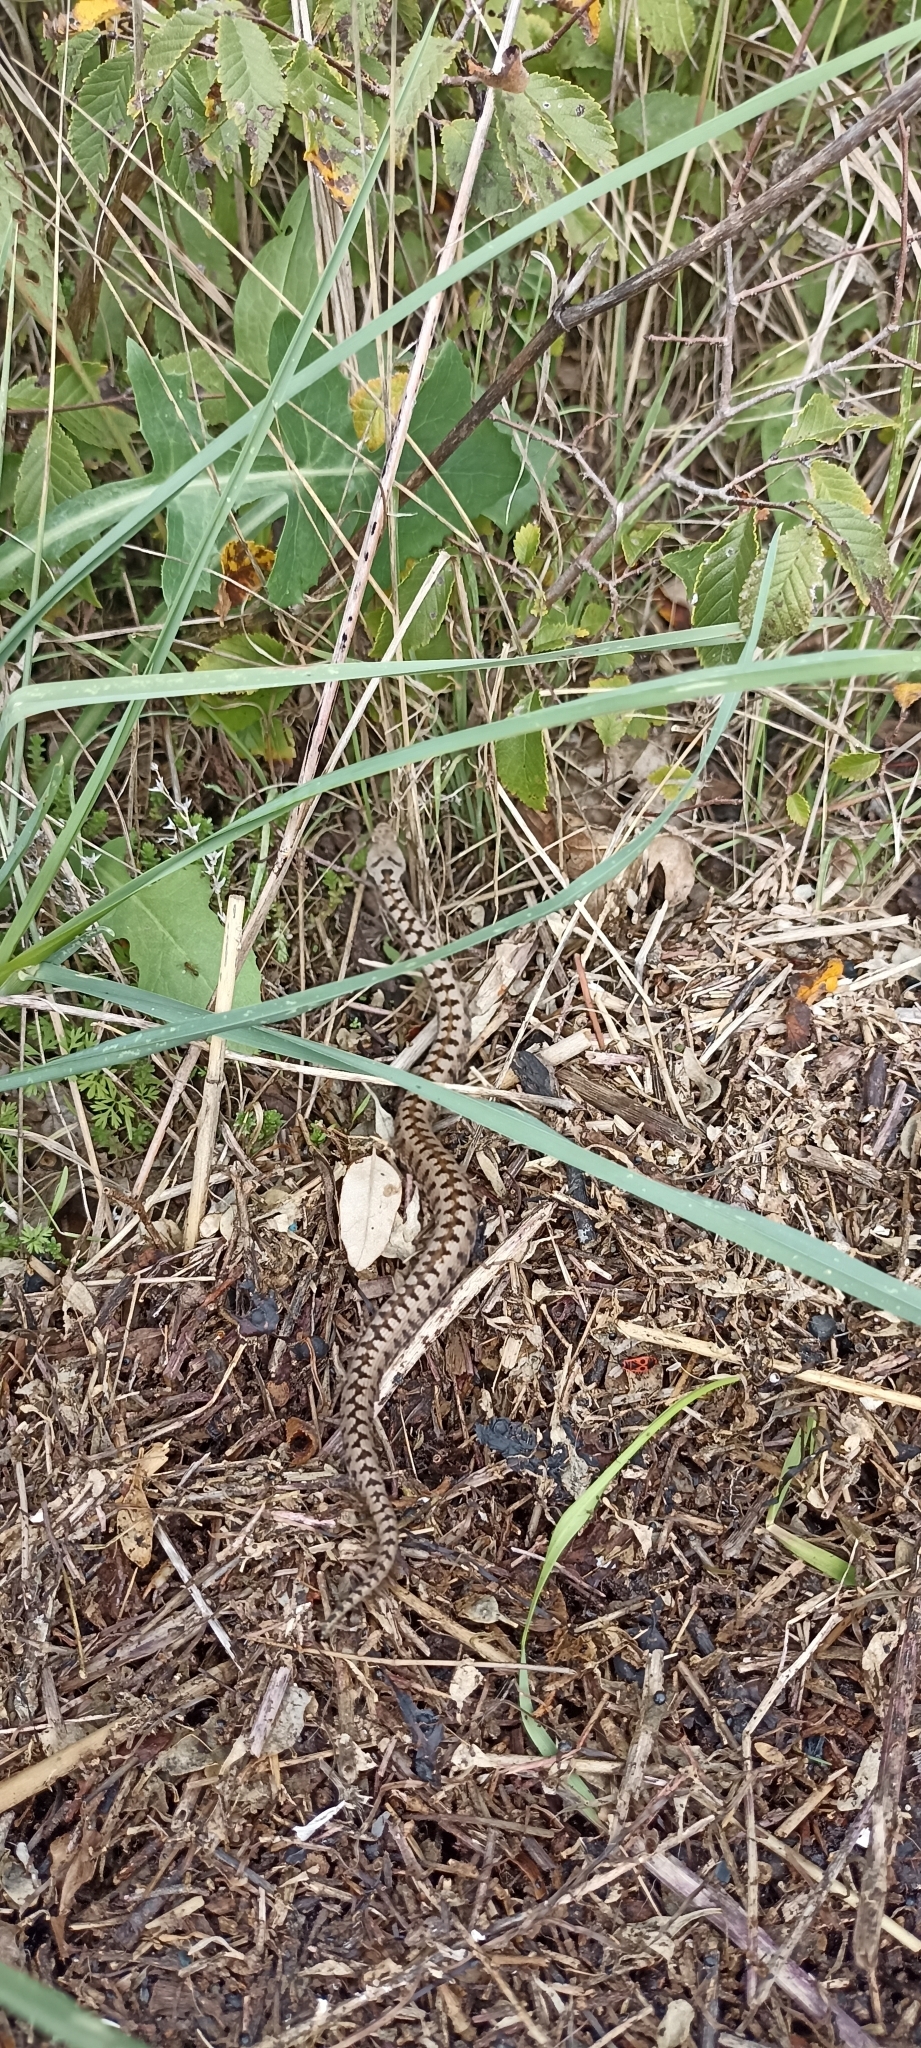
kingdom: Animalia
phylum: Chordata
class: Squamata
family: Viperidae
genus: Vipera
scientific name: Vipera aspis
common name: Asp viper
